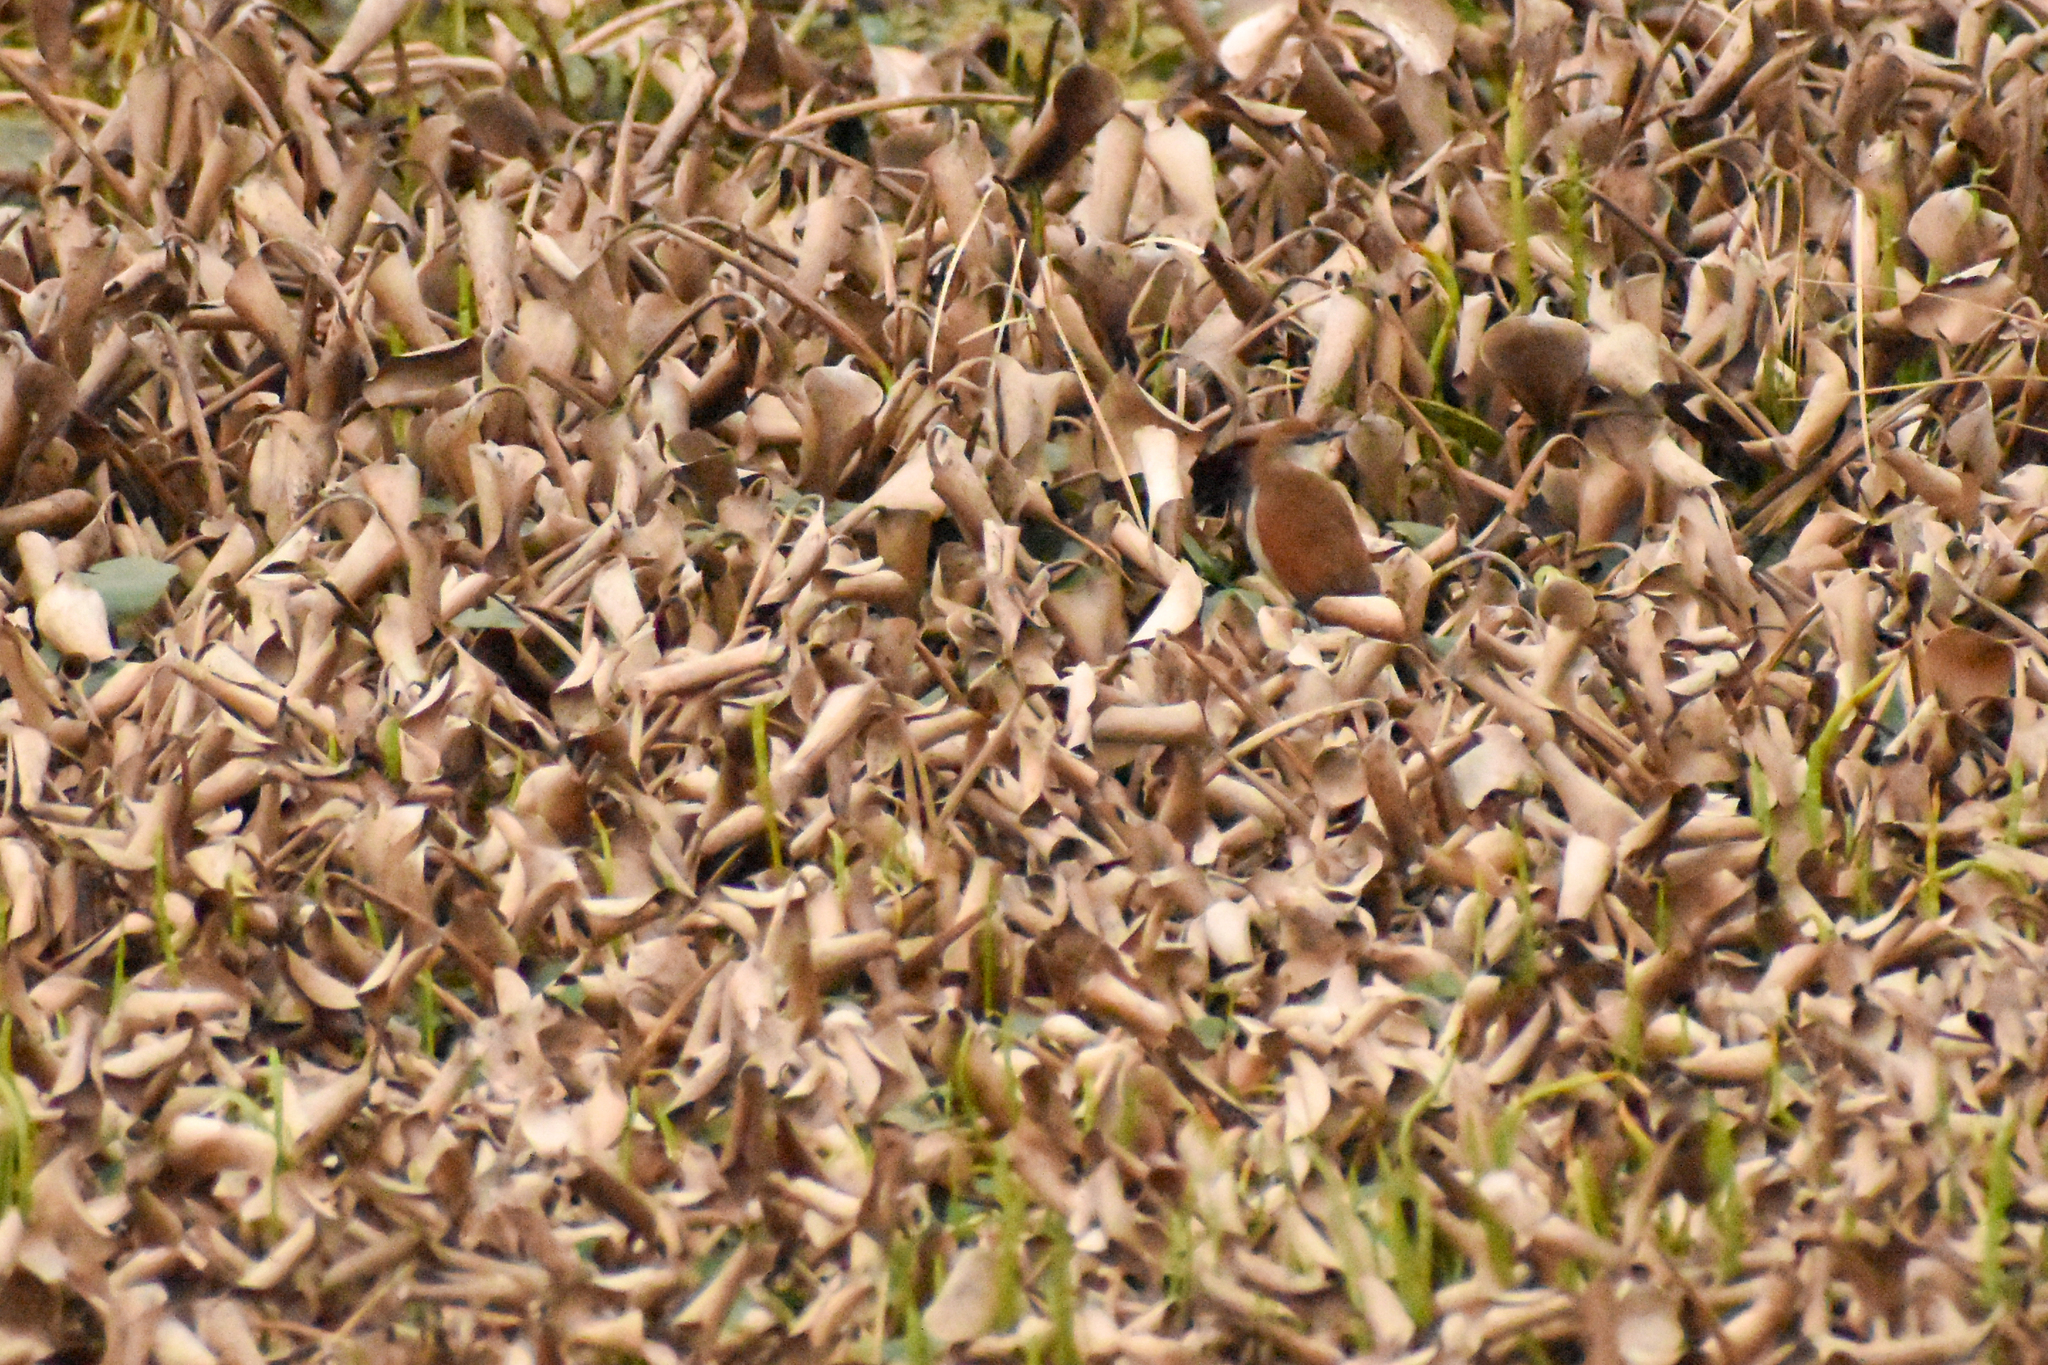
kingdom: Animalia
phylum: Chordata
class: Aves
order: Passeriformes
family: Furnariidae
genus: Certhiaxis
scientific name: Certhiaxis cinnamomeus
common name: Yellow-chinned spinetail
